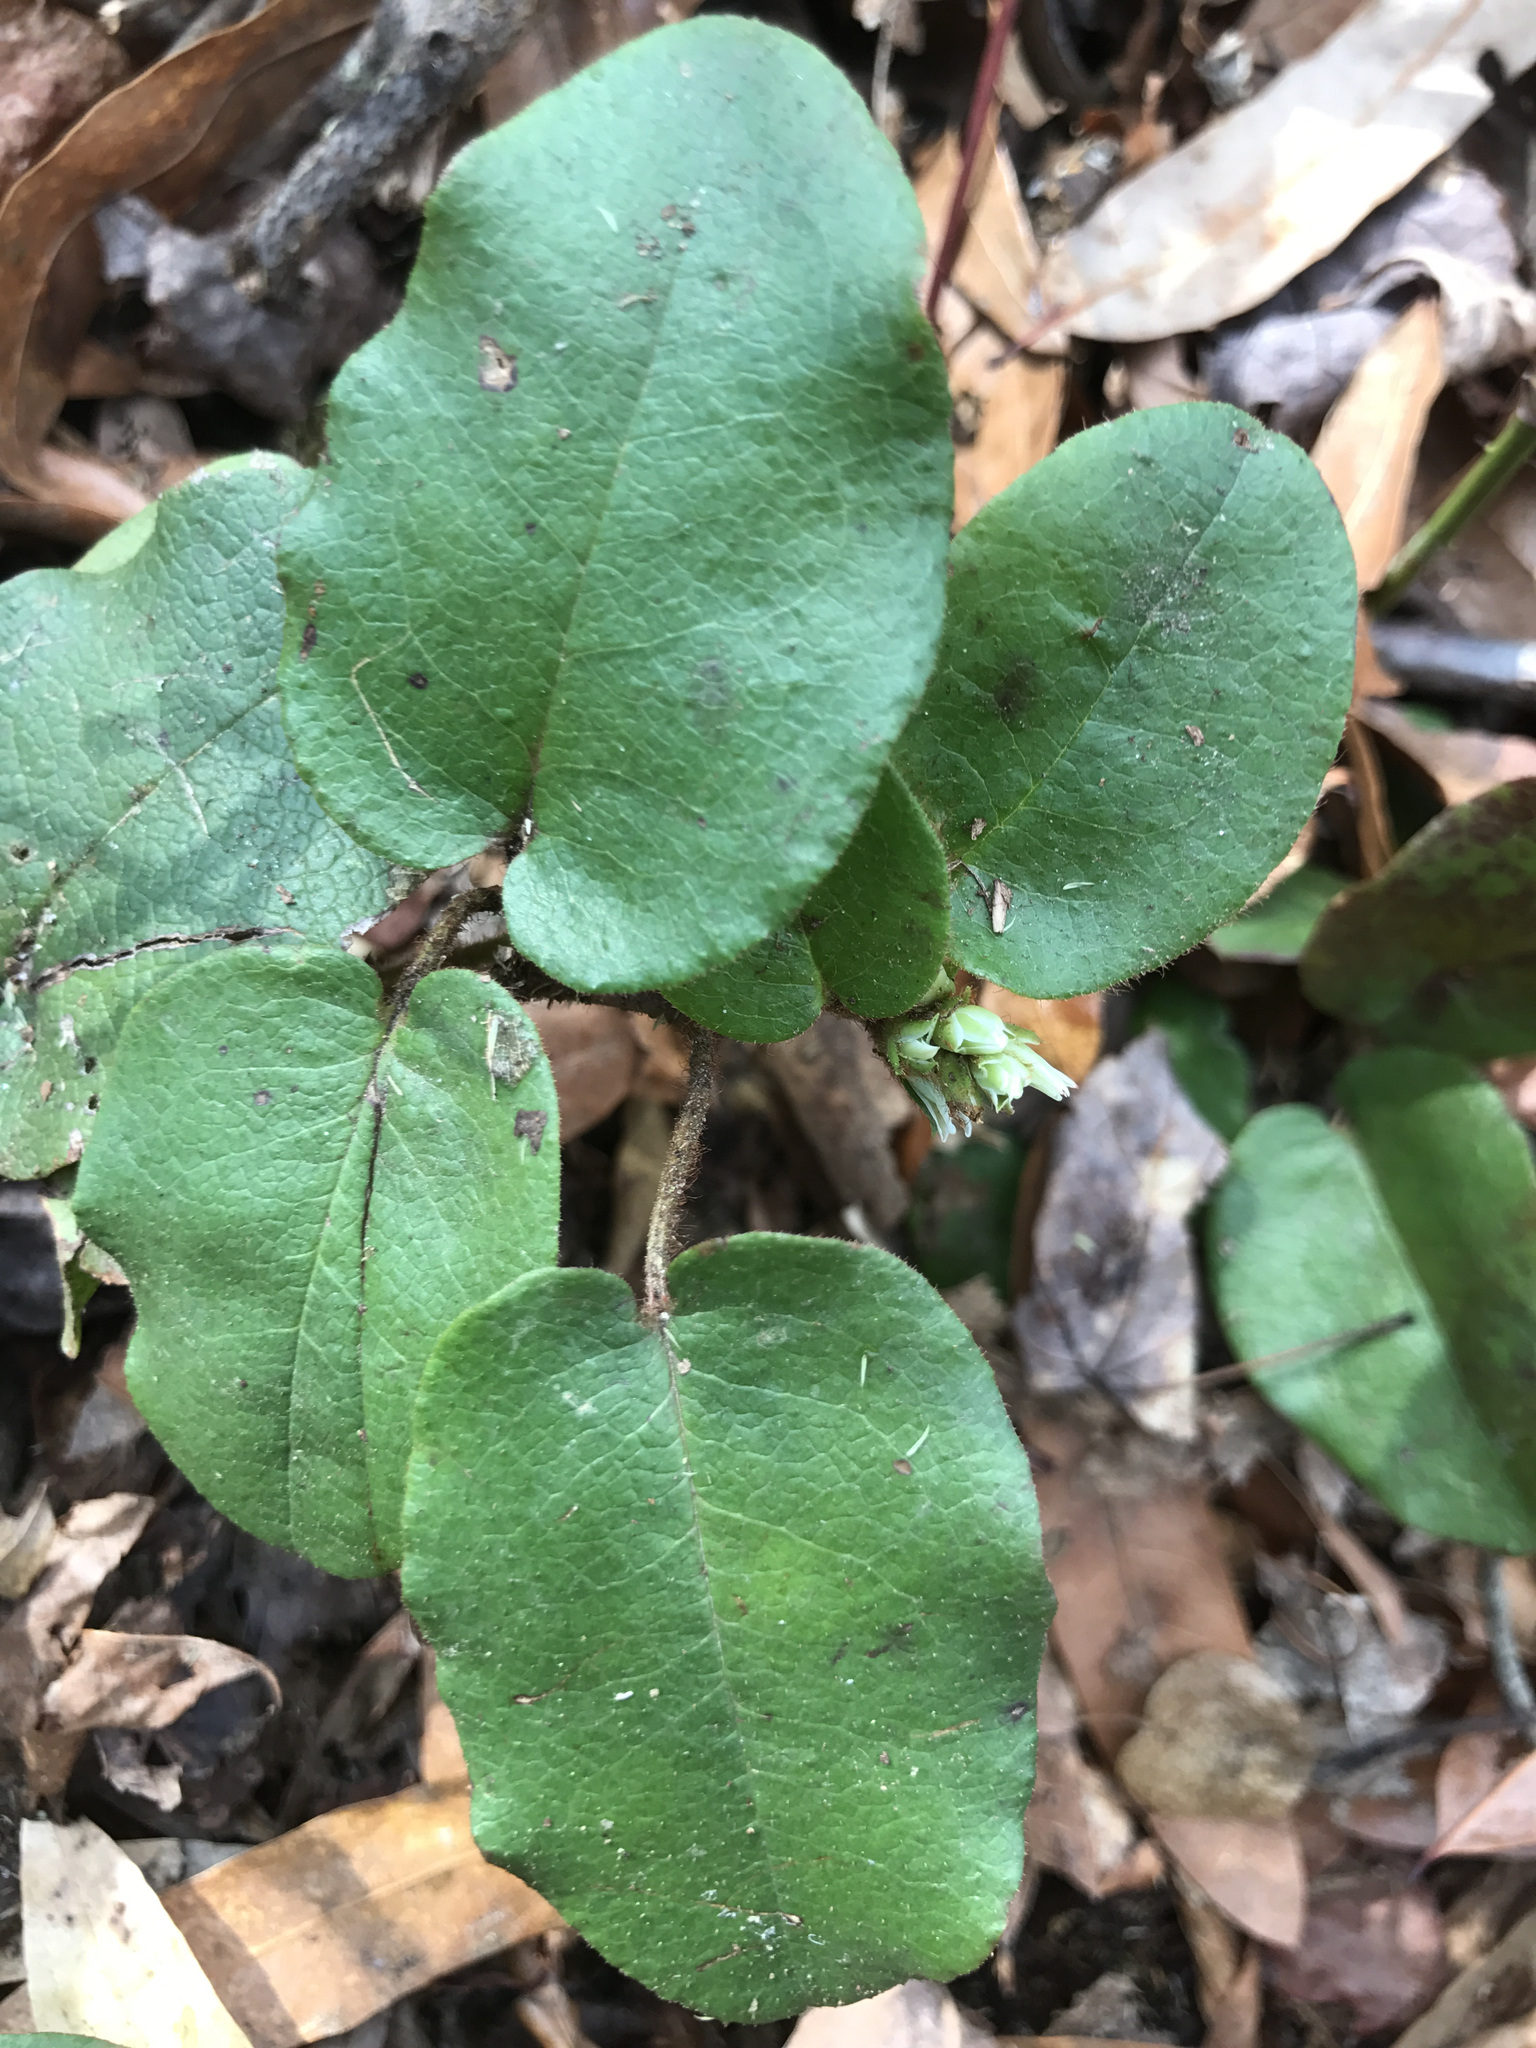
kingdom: Plantae
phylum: Tracheophyta
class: Magnoliopsida
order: Ericales
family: Ericaceae
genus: Epigaea
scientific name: Epigaea repens
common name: Gravelroot
